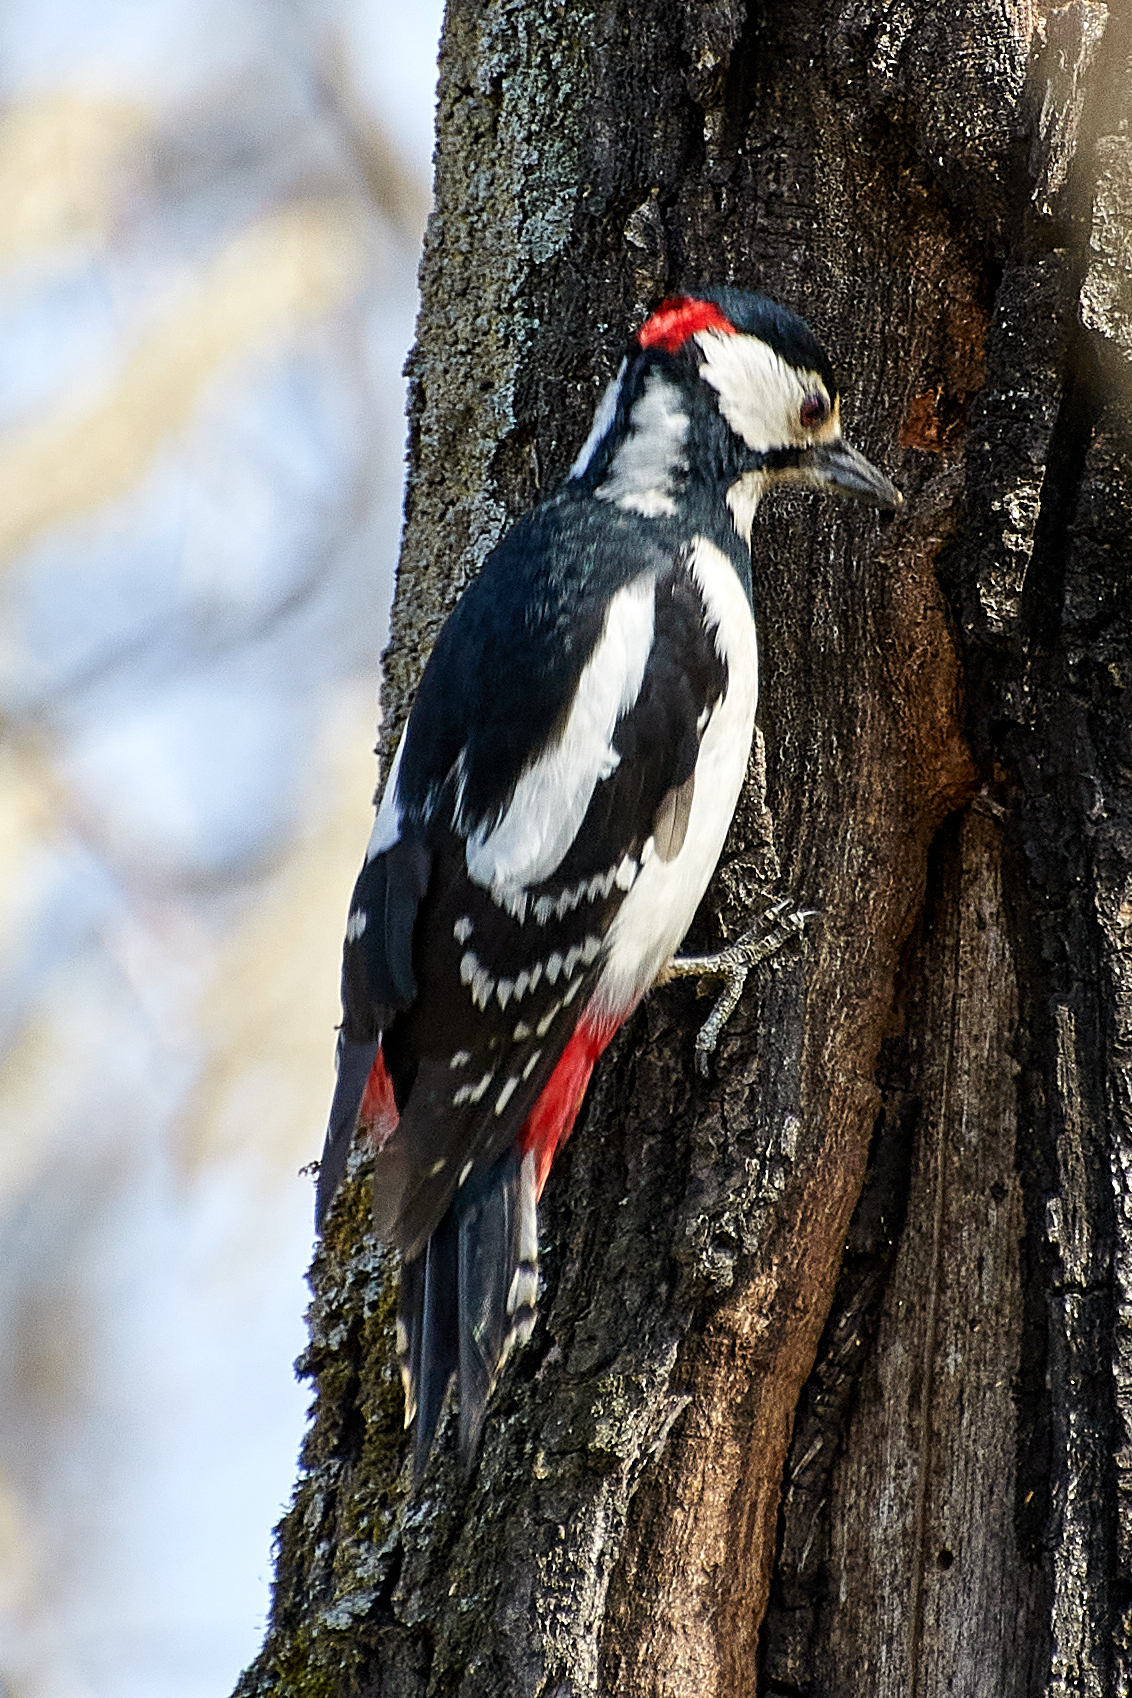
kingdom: Animalia
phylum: Chordata
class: Aves
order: Piciformes
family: Picidae
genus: Dendrocopos
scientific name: Dendrocopos major
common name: Great spotted woodpecker
